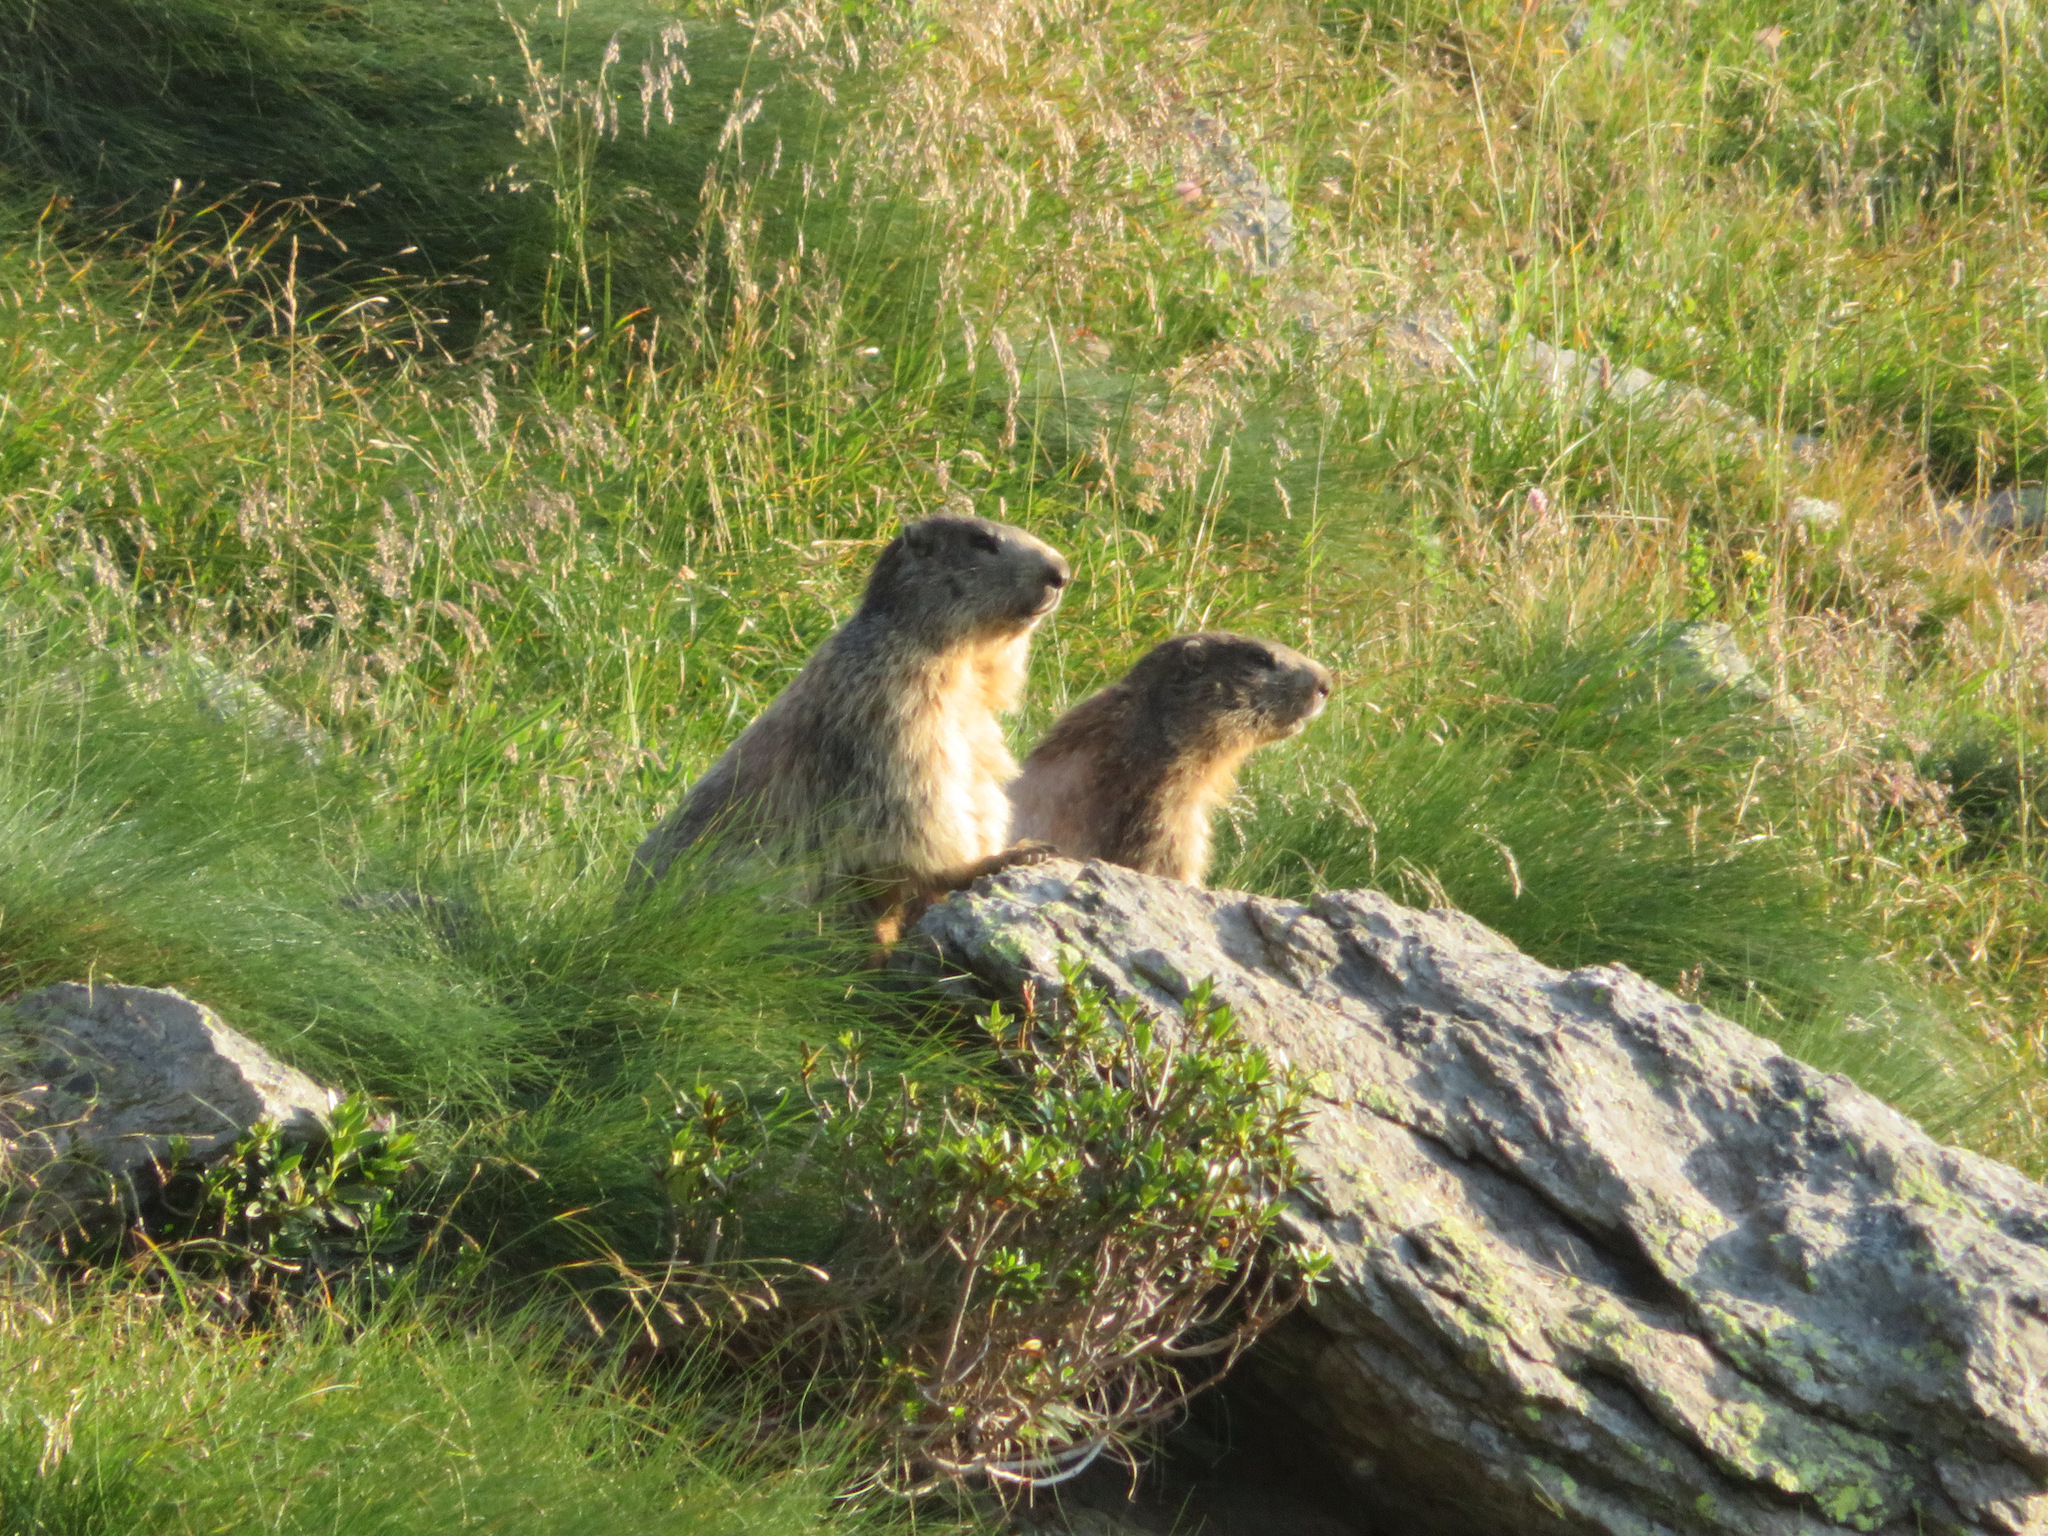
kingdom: Animalia
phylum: Chordata
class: Mammalia
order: Rodentia
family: Sciuridae
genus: Marmota
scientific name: Marmota marmota
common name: Alpine marmot
